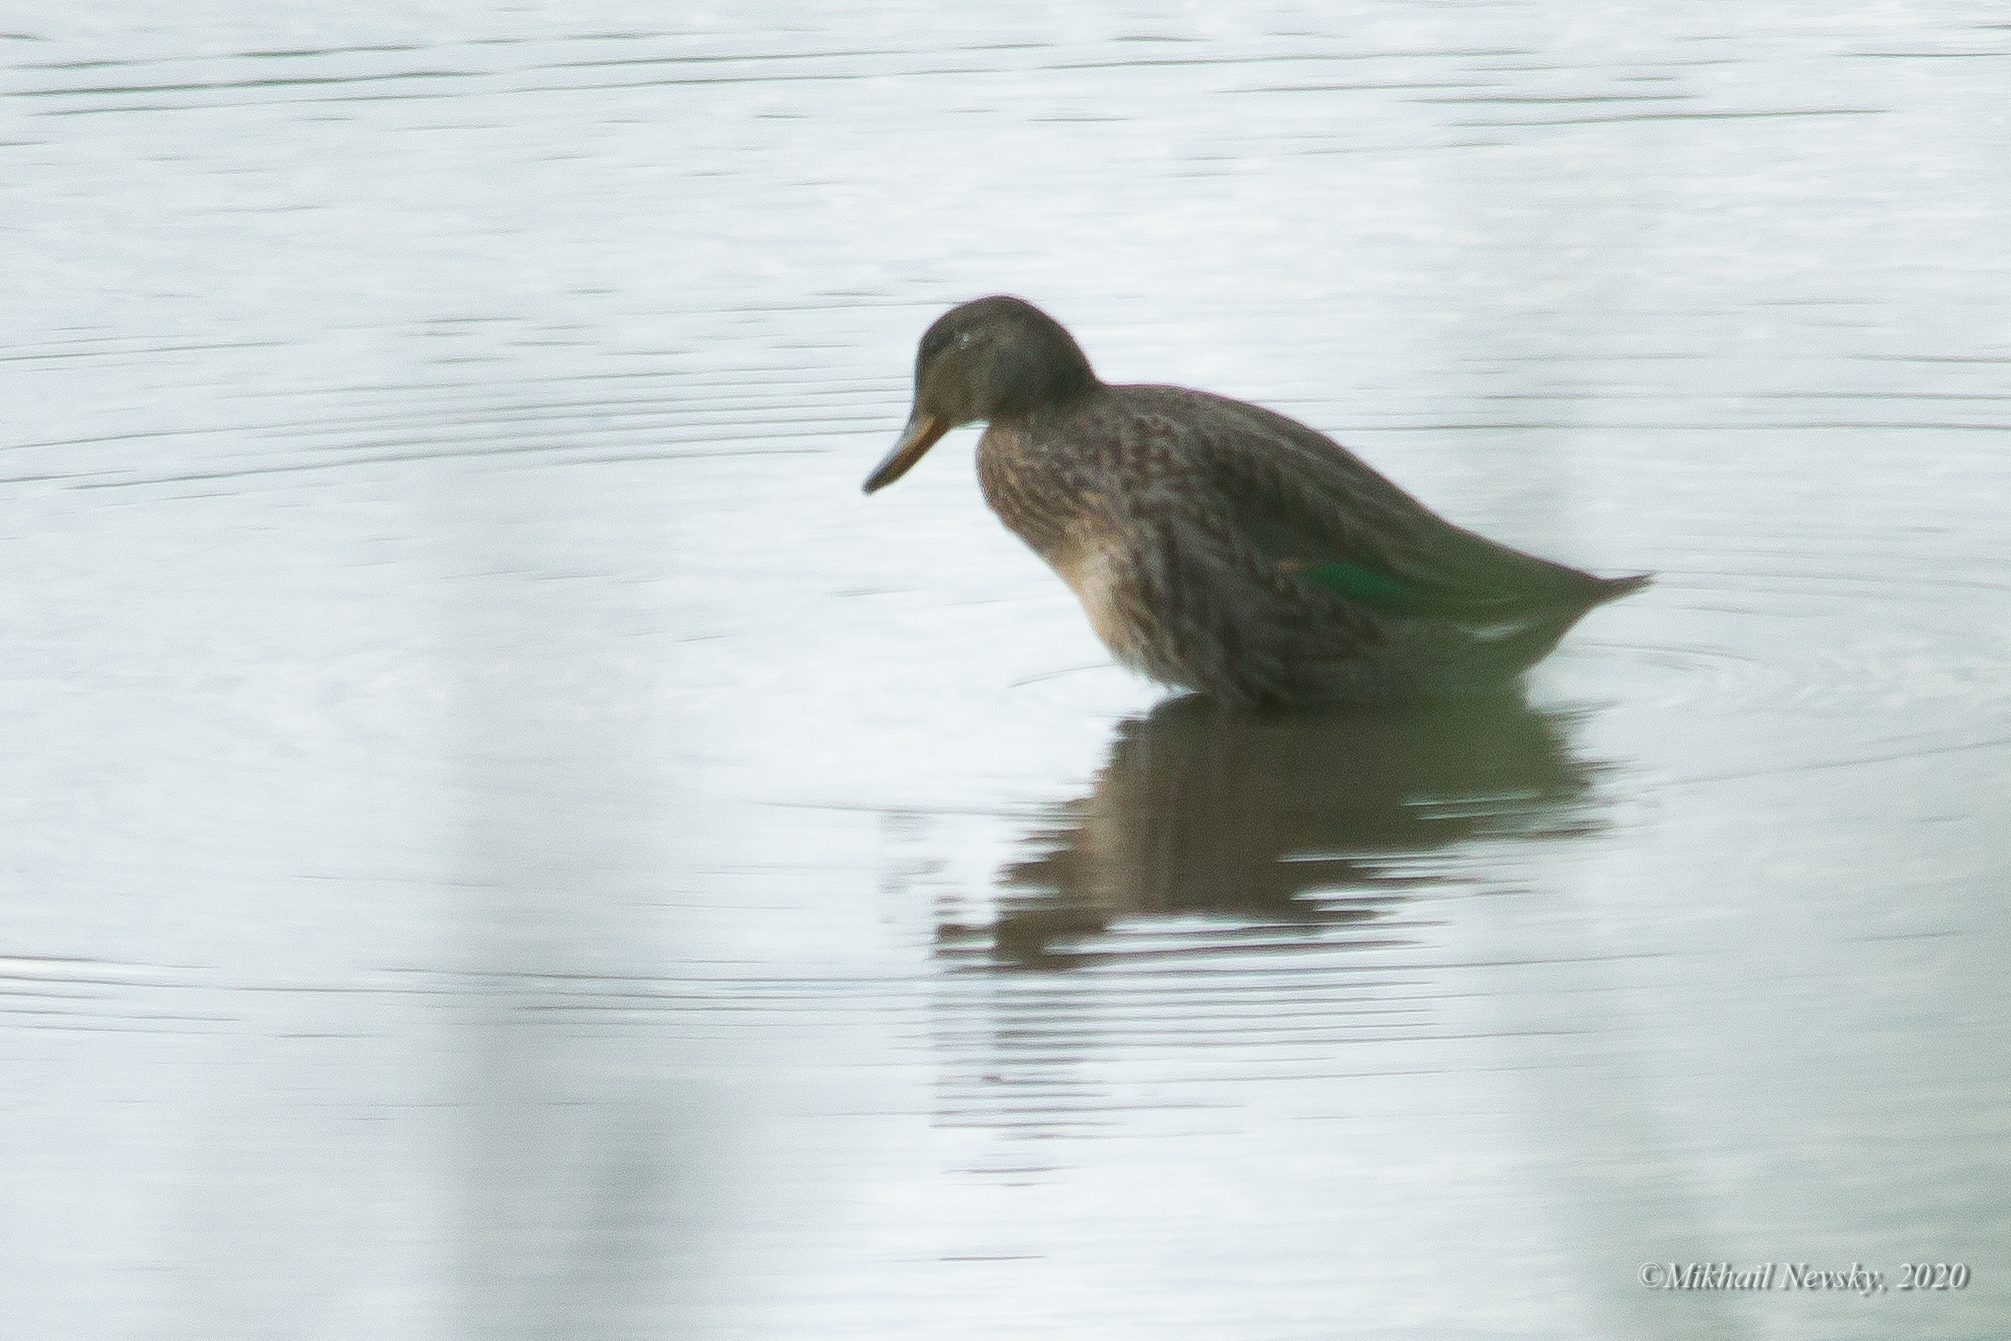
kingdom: Animalia
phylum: Chordata
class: Aves
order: Anseriformes
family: Anatidae
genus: Anas
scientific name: Anas crecca
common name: Eurasian teal
